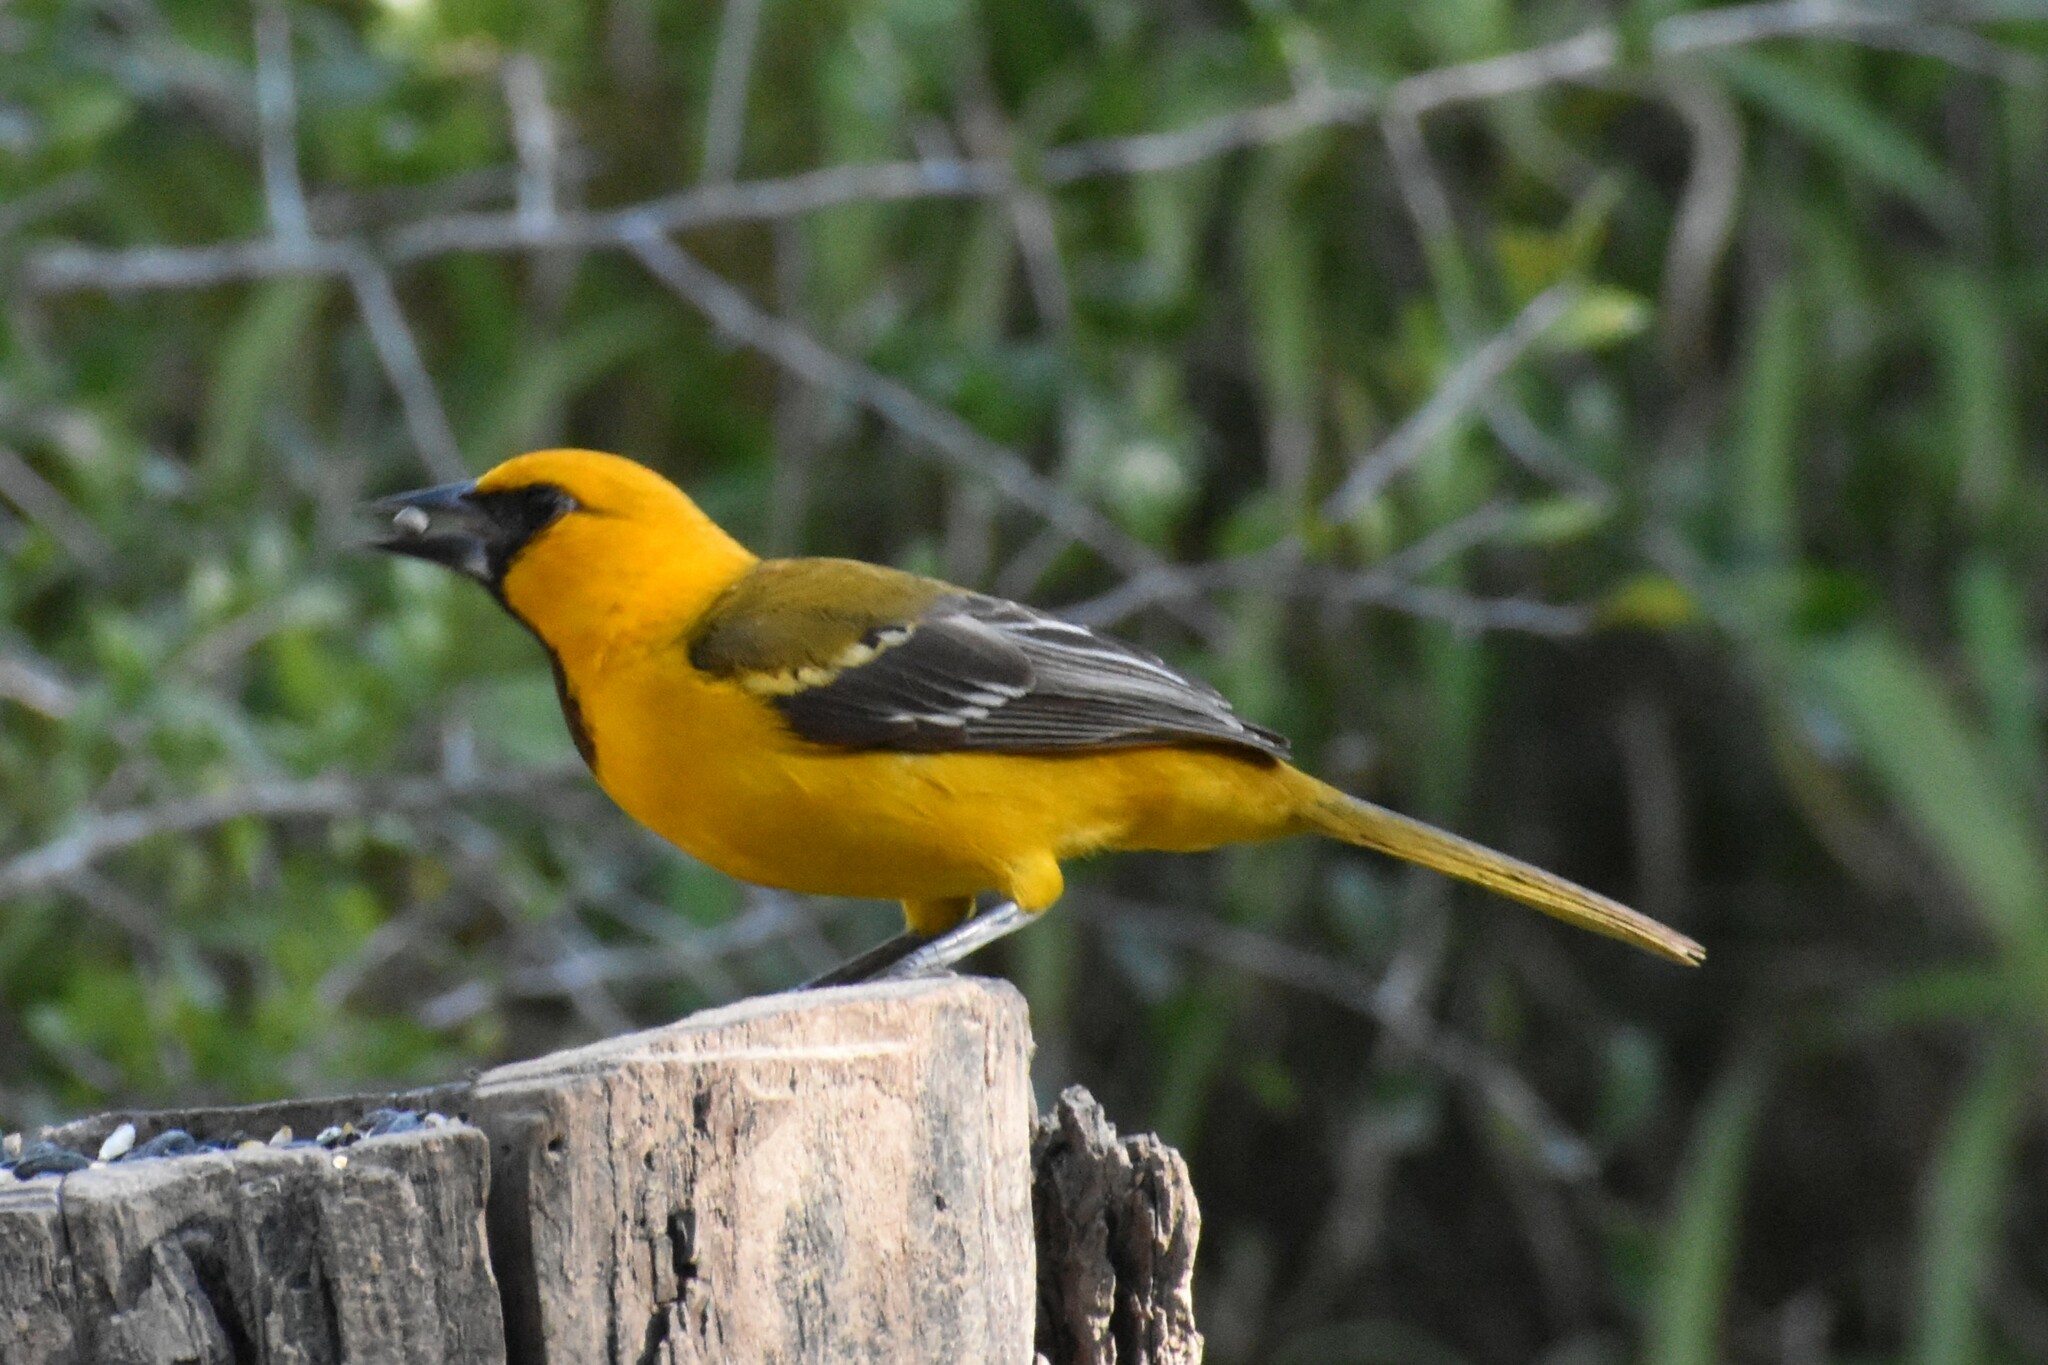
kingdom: Animalia
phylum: Chordata
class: Aves
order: Passeriformes
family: Icteridae
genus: Icterus
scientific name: Icterus gularis
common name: Altamira oriole
